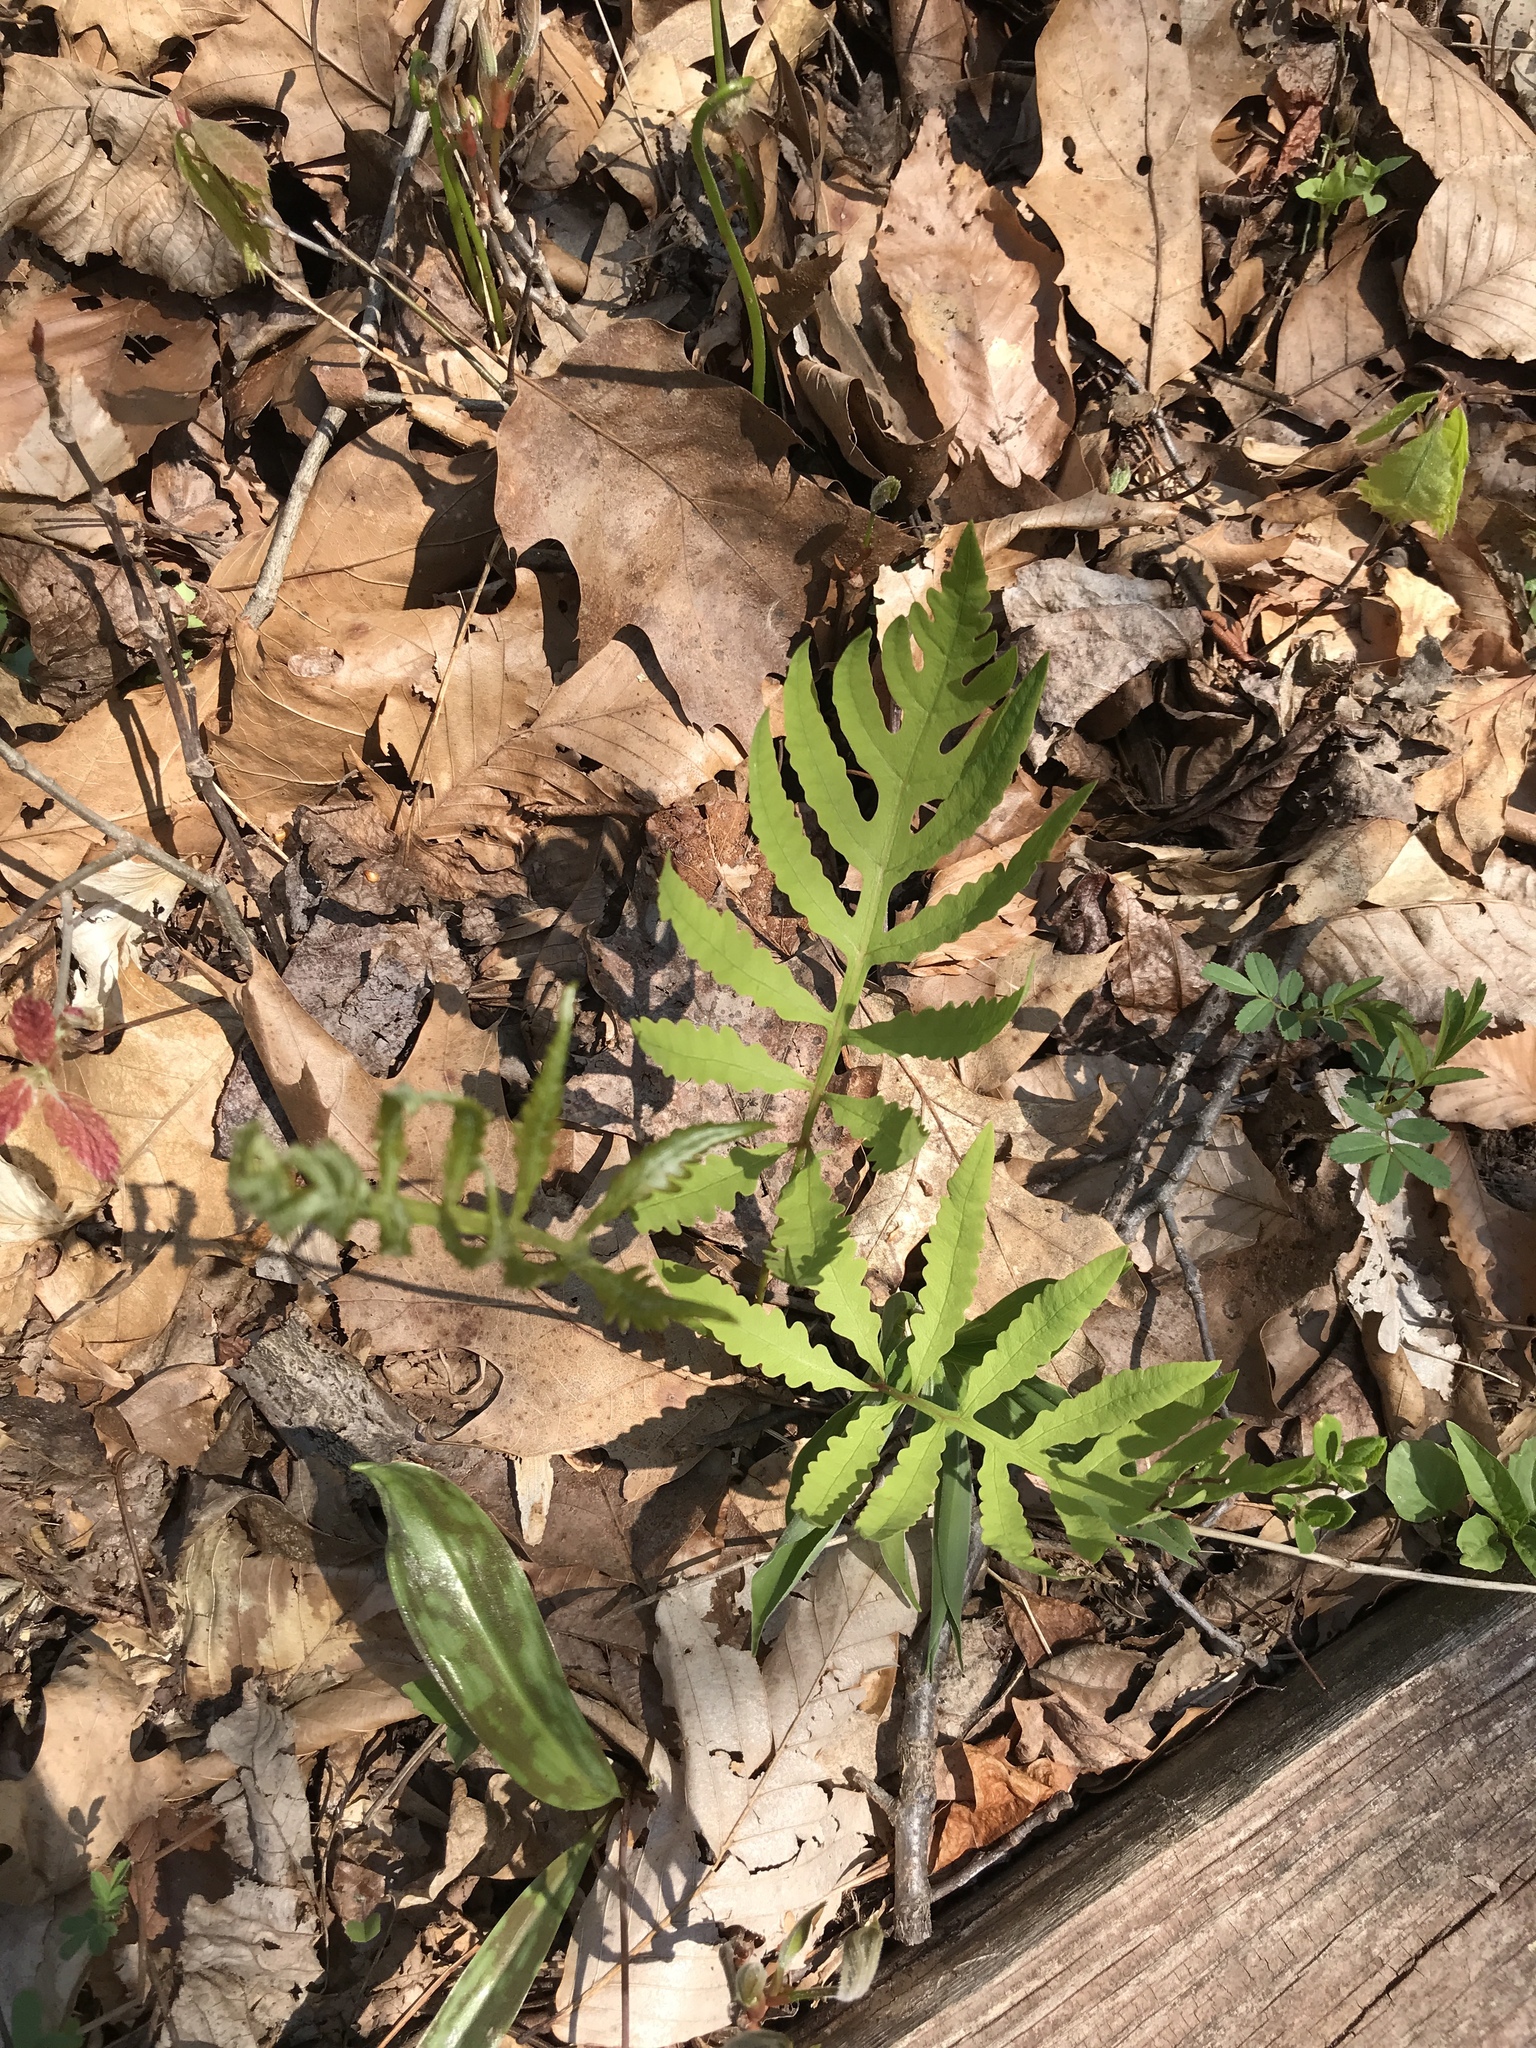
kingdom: Plantae
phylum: Tracheophyta
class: Polypodiopsida
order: Polypodiales
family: Onocleaceae
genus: Onoclea
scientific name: Onoclea sensibilis
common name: Sensitive fern
